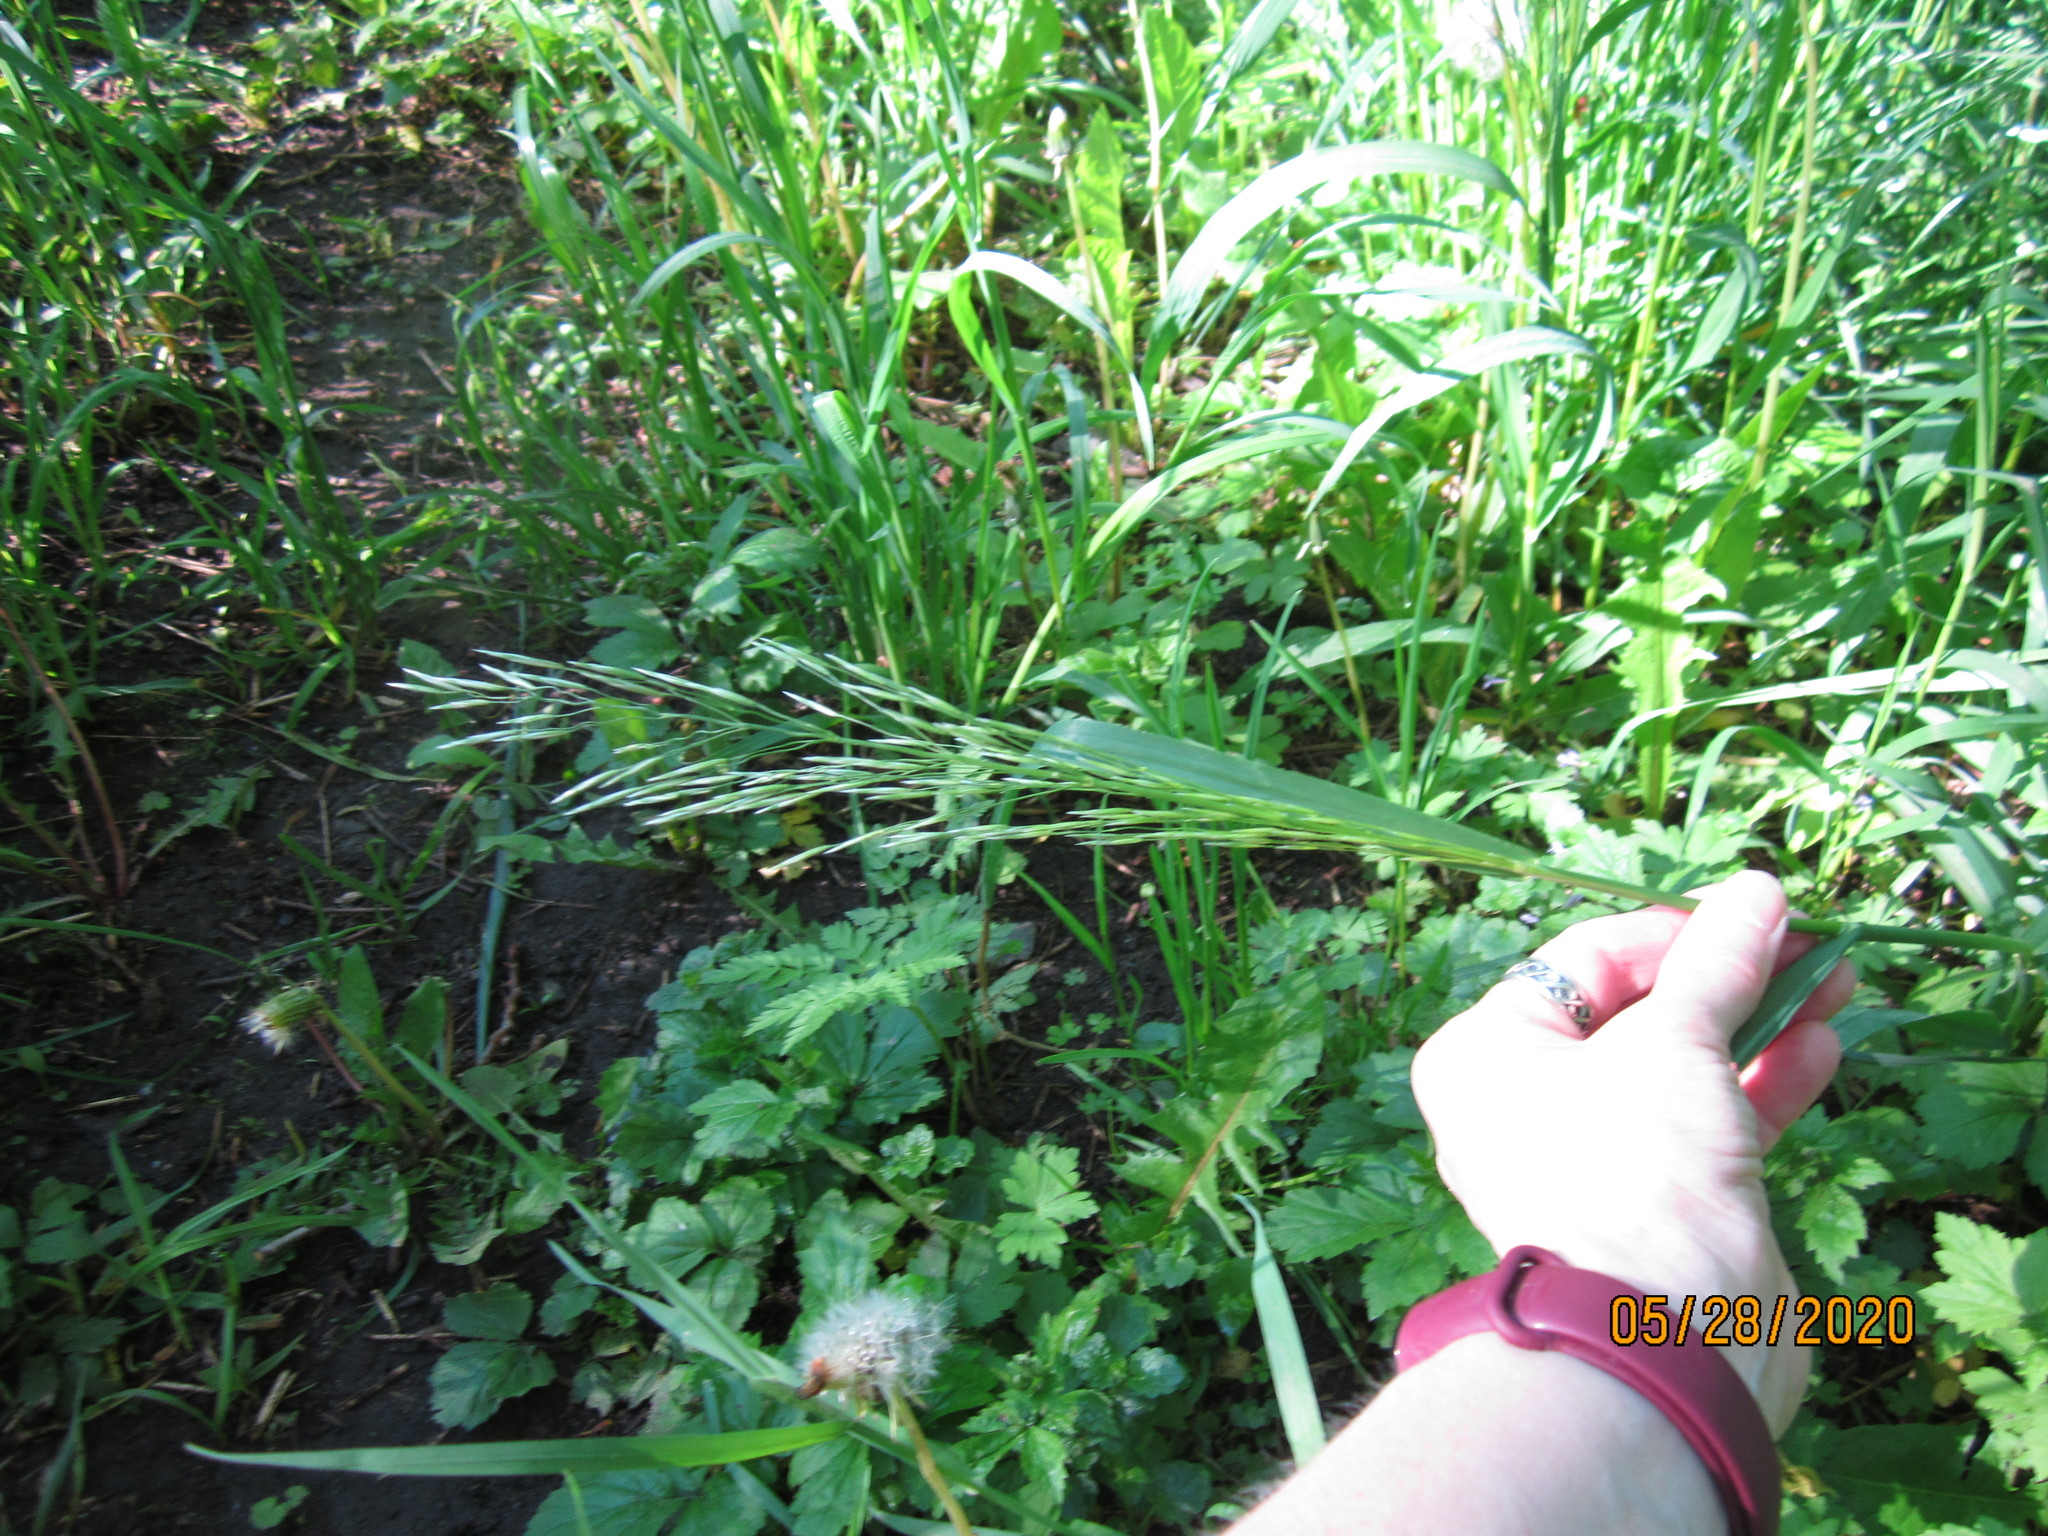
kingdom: Plantae
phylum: Tracheophyta
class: Liliopsida
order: Poales
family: Poaceae
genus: Bromus
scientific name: Bromus inermis
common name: Smooth brome
